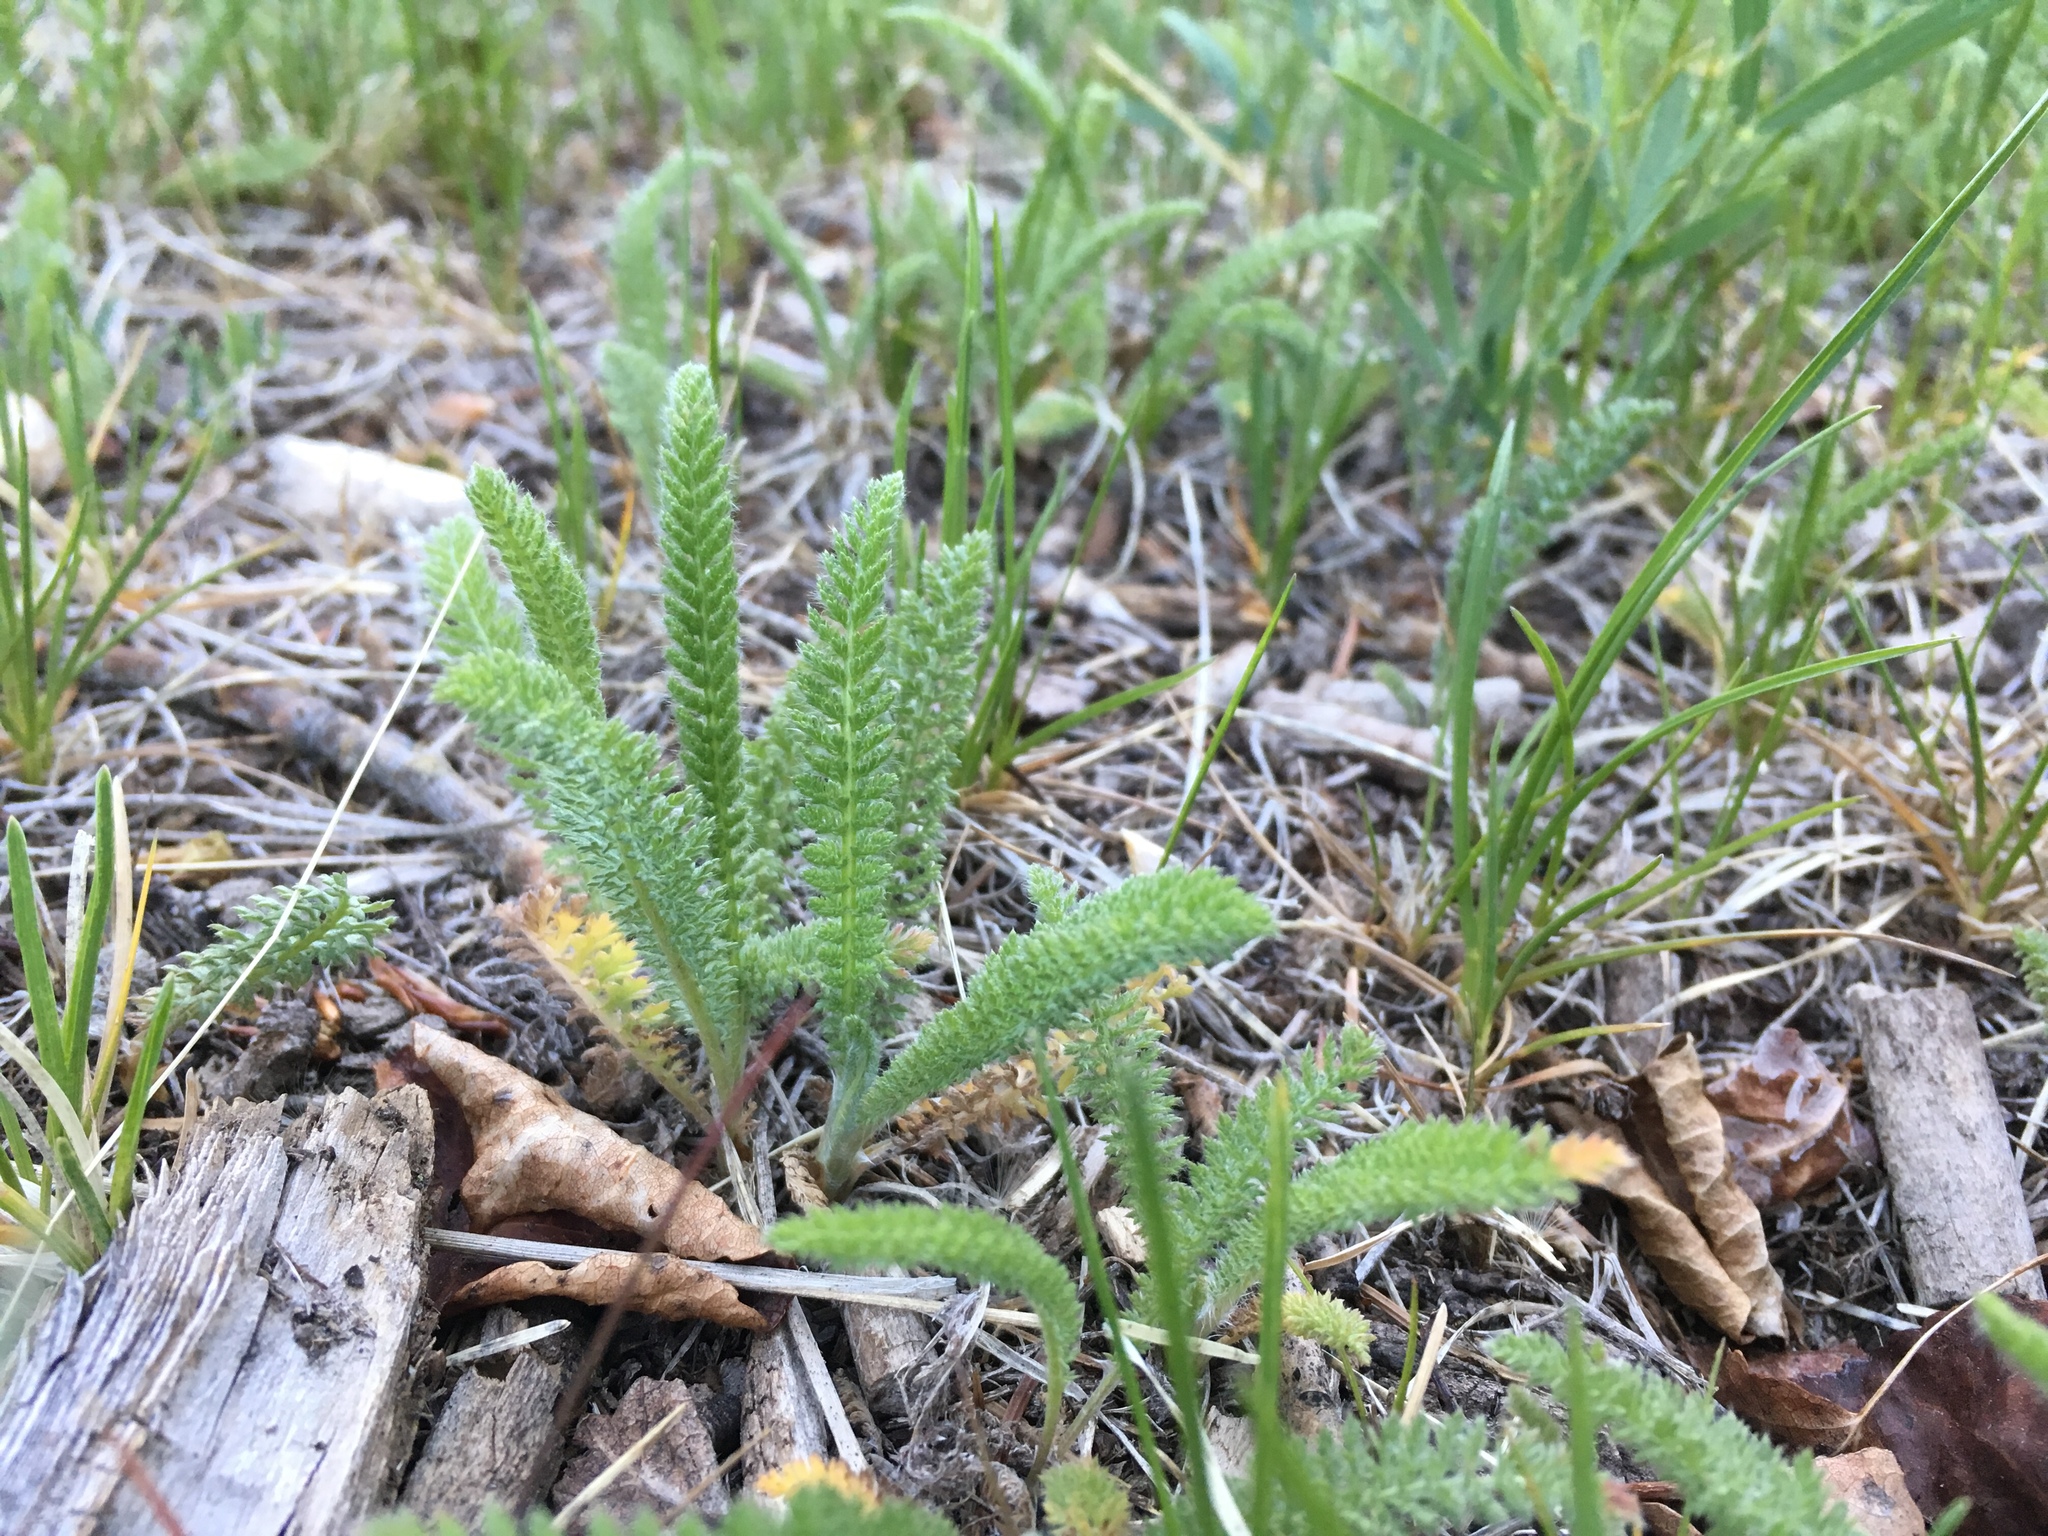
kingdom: Plantae
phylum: Tracheophyta
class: Magnoliopsida
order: Asterales
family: Asteraceae
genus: Achillea
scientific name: Achillea millefolium
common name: Yarrow
